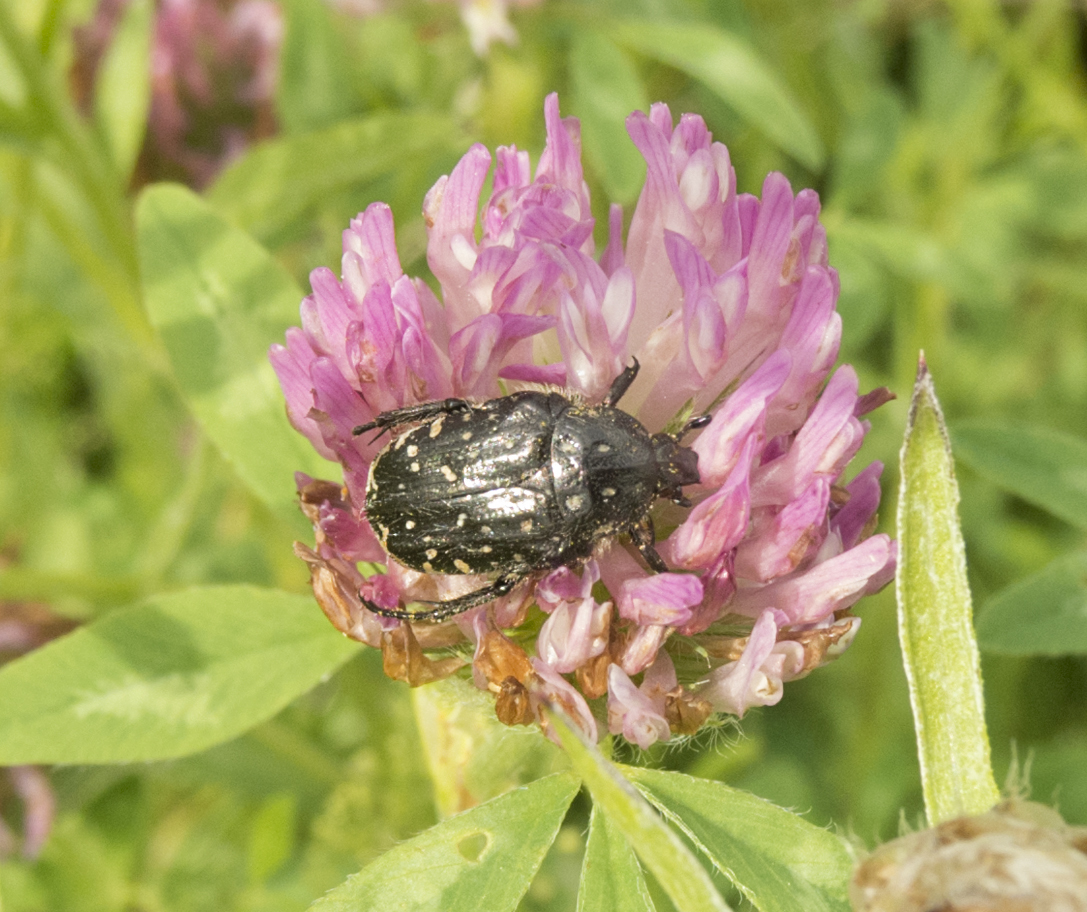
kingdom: Animalia
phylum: Arthropoda
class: Insecta
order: Coleoptera
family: Scarabaeidae
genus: Oxythyrea
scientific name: Oxythyrea funesta
